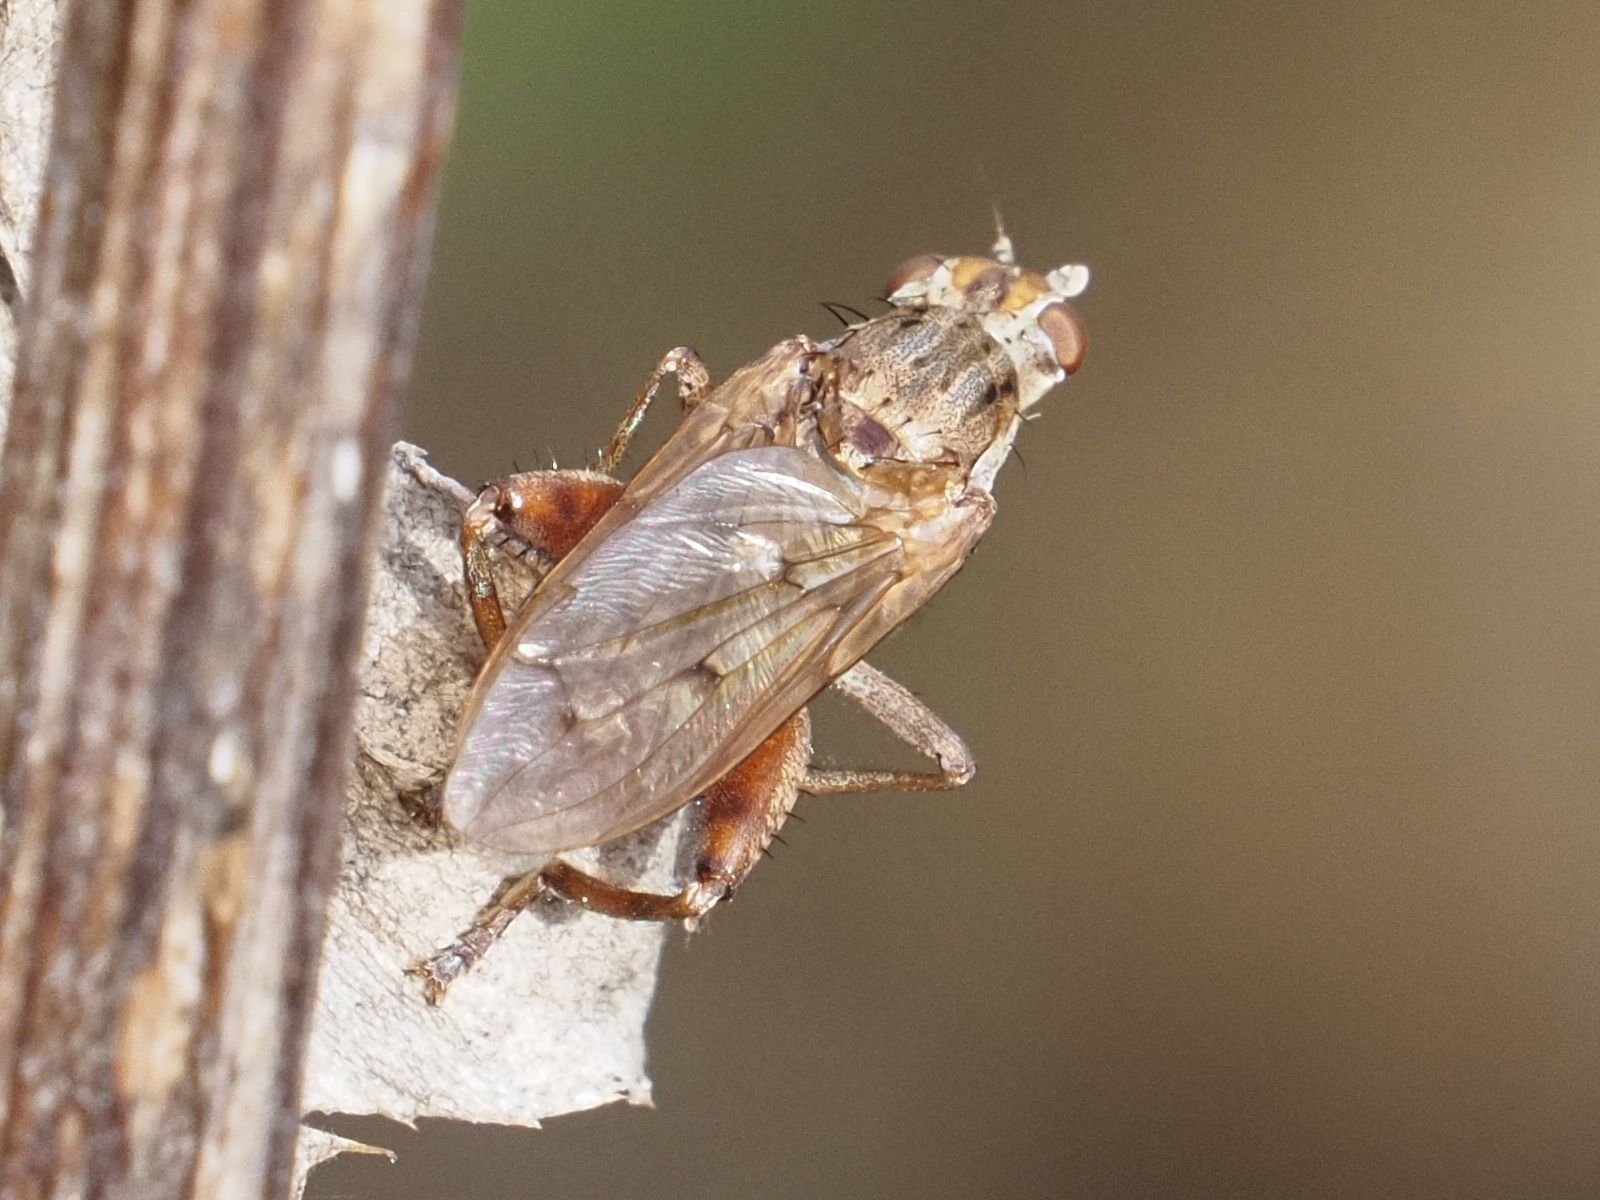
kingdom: Animalia
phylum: Arthropoda
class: Insecta
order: Diptera
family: Sciomyzidae
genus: Salticella
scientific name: Salticella fasciata
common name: Dune snail-killing fly
